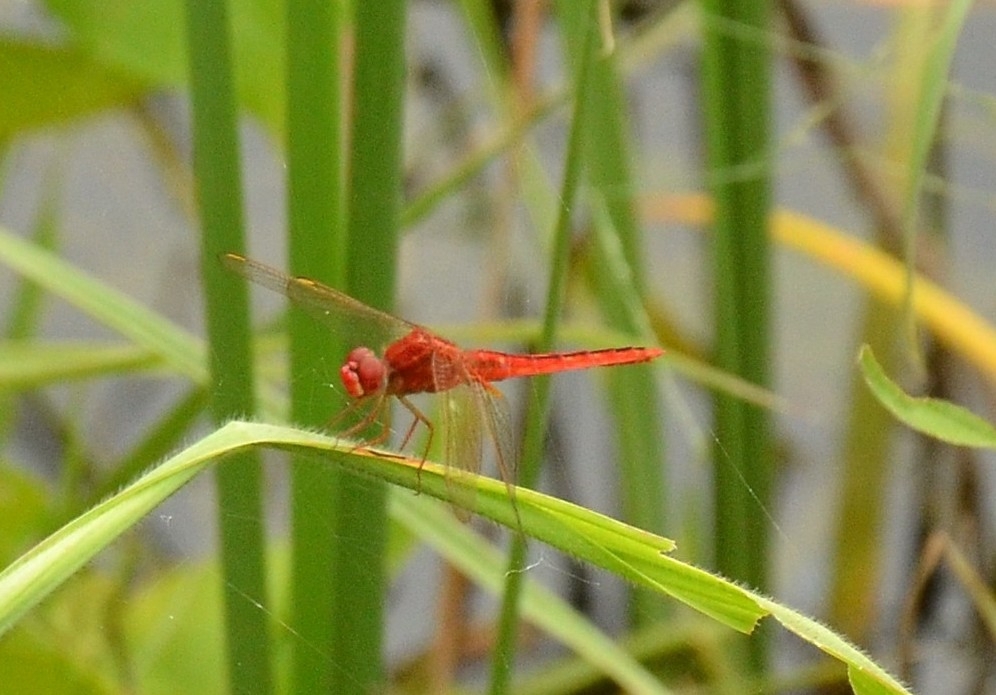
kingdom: Animalia
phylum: Arthropoda
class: Insecta
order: Odonata
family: Libellulidae
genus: Crocothemis
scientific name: Crocothemis servilia
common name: Scarlet skimmer
